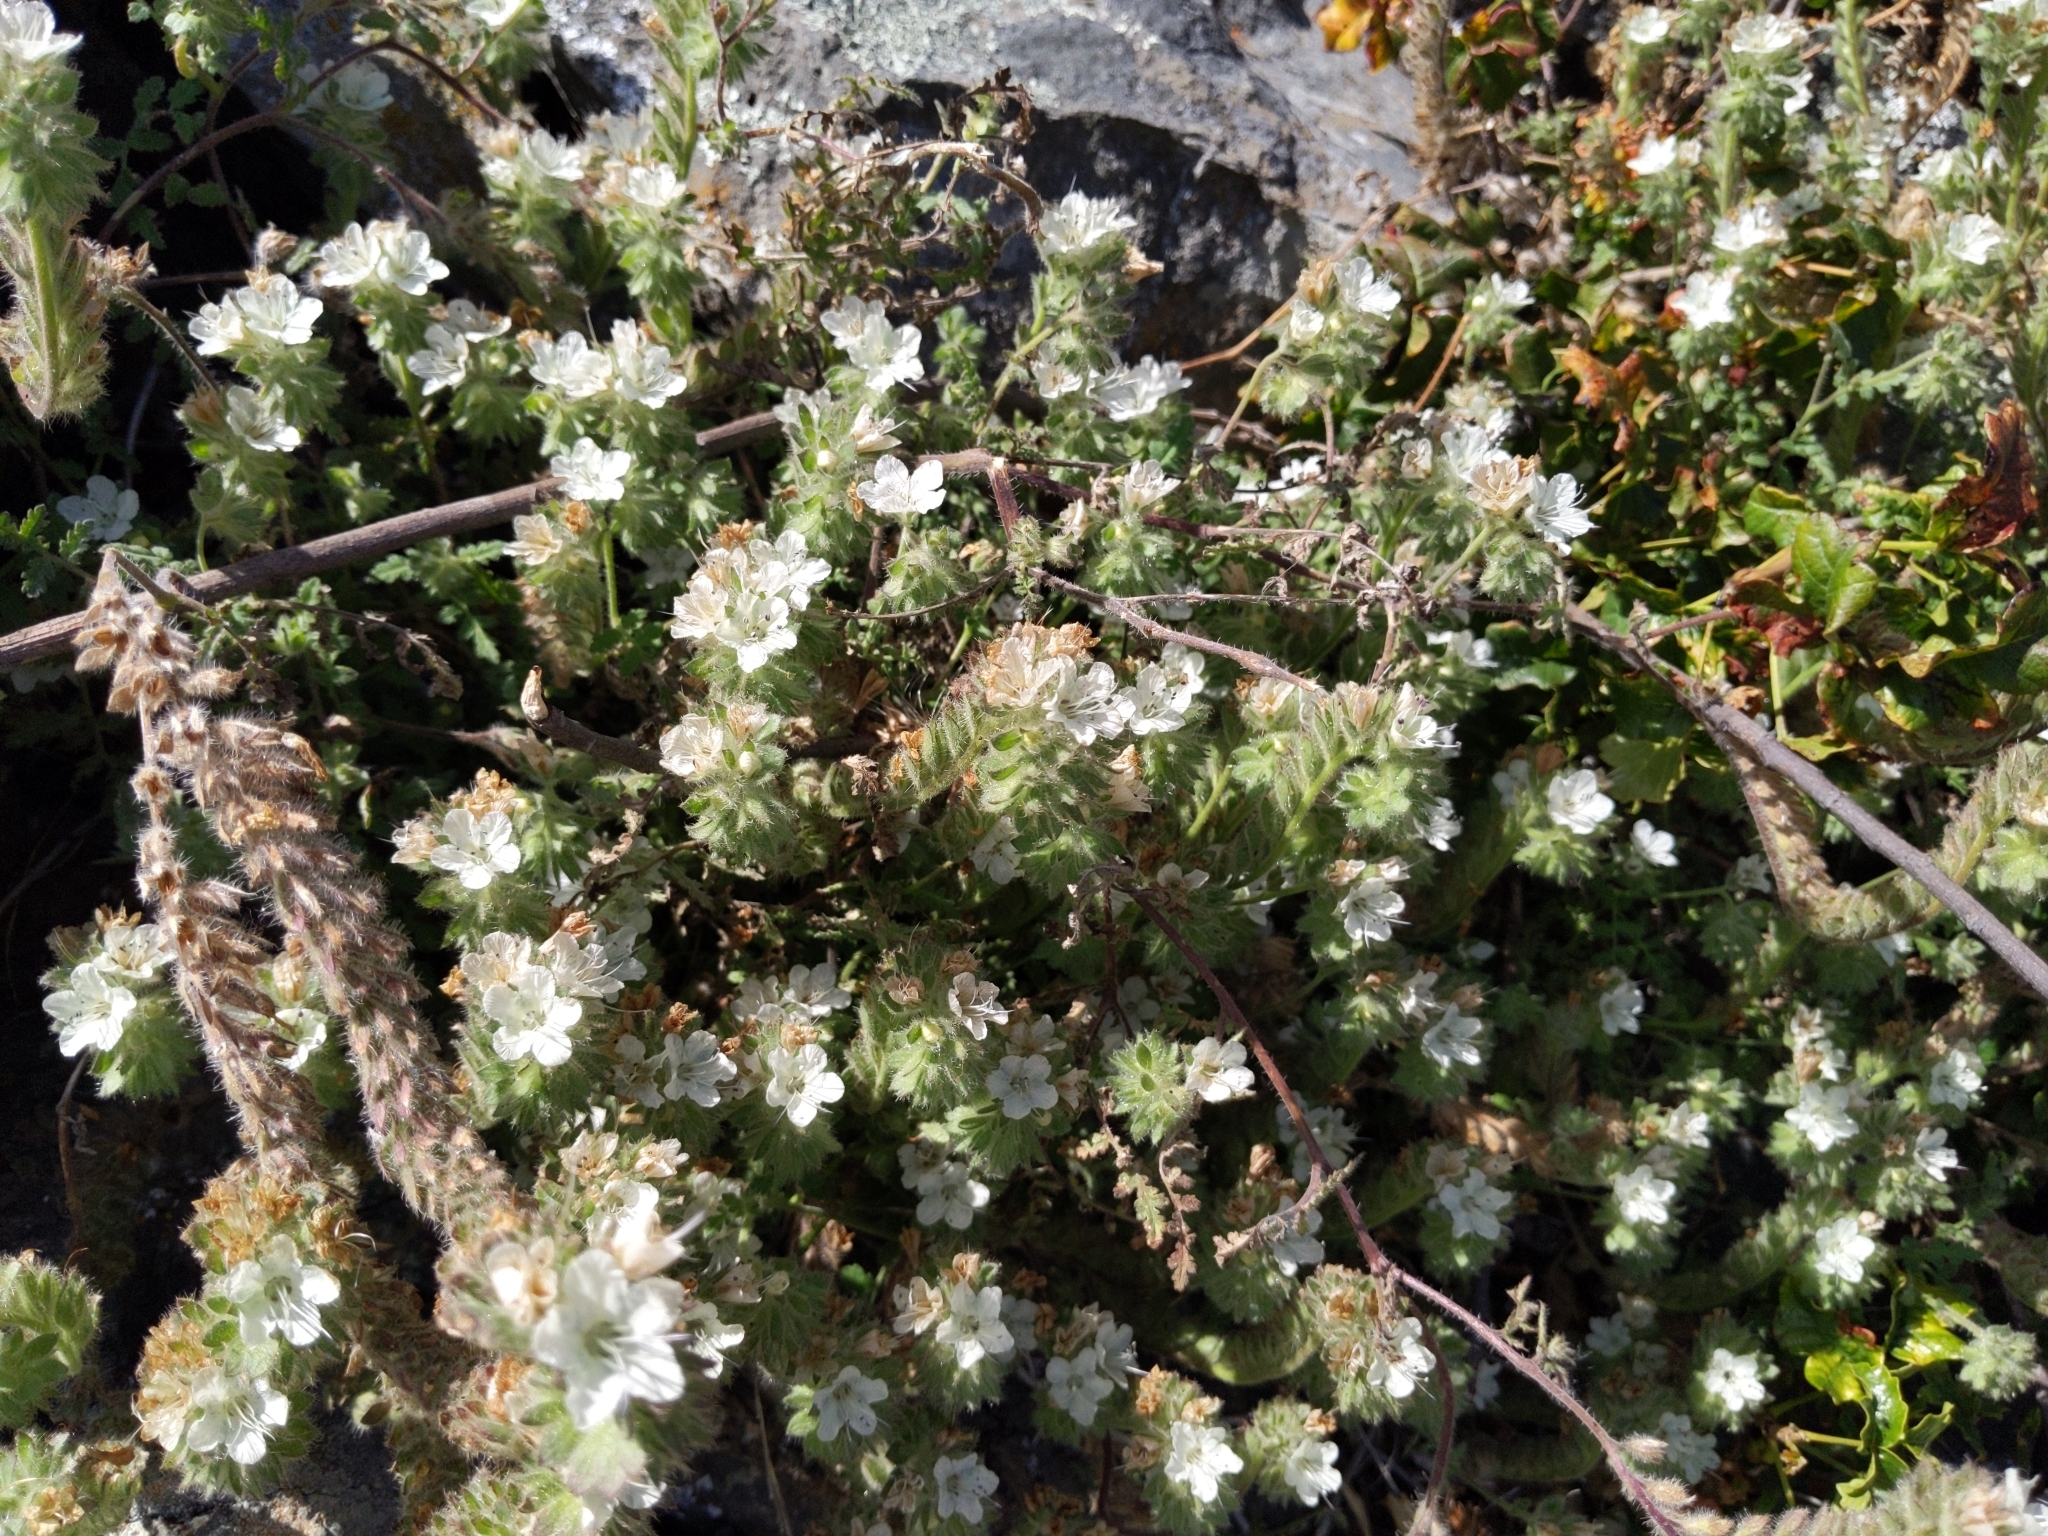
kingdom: Plantae
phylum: Tracheophyta
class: Magnoliopsida
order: Boraginales
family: Hydrophyllaceae
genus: Phacelia
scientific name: Phacelia distans
